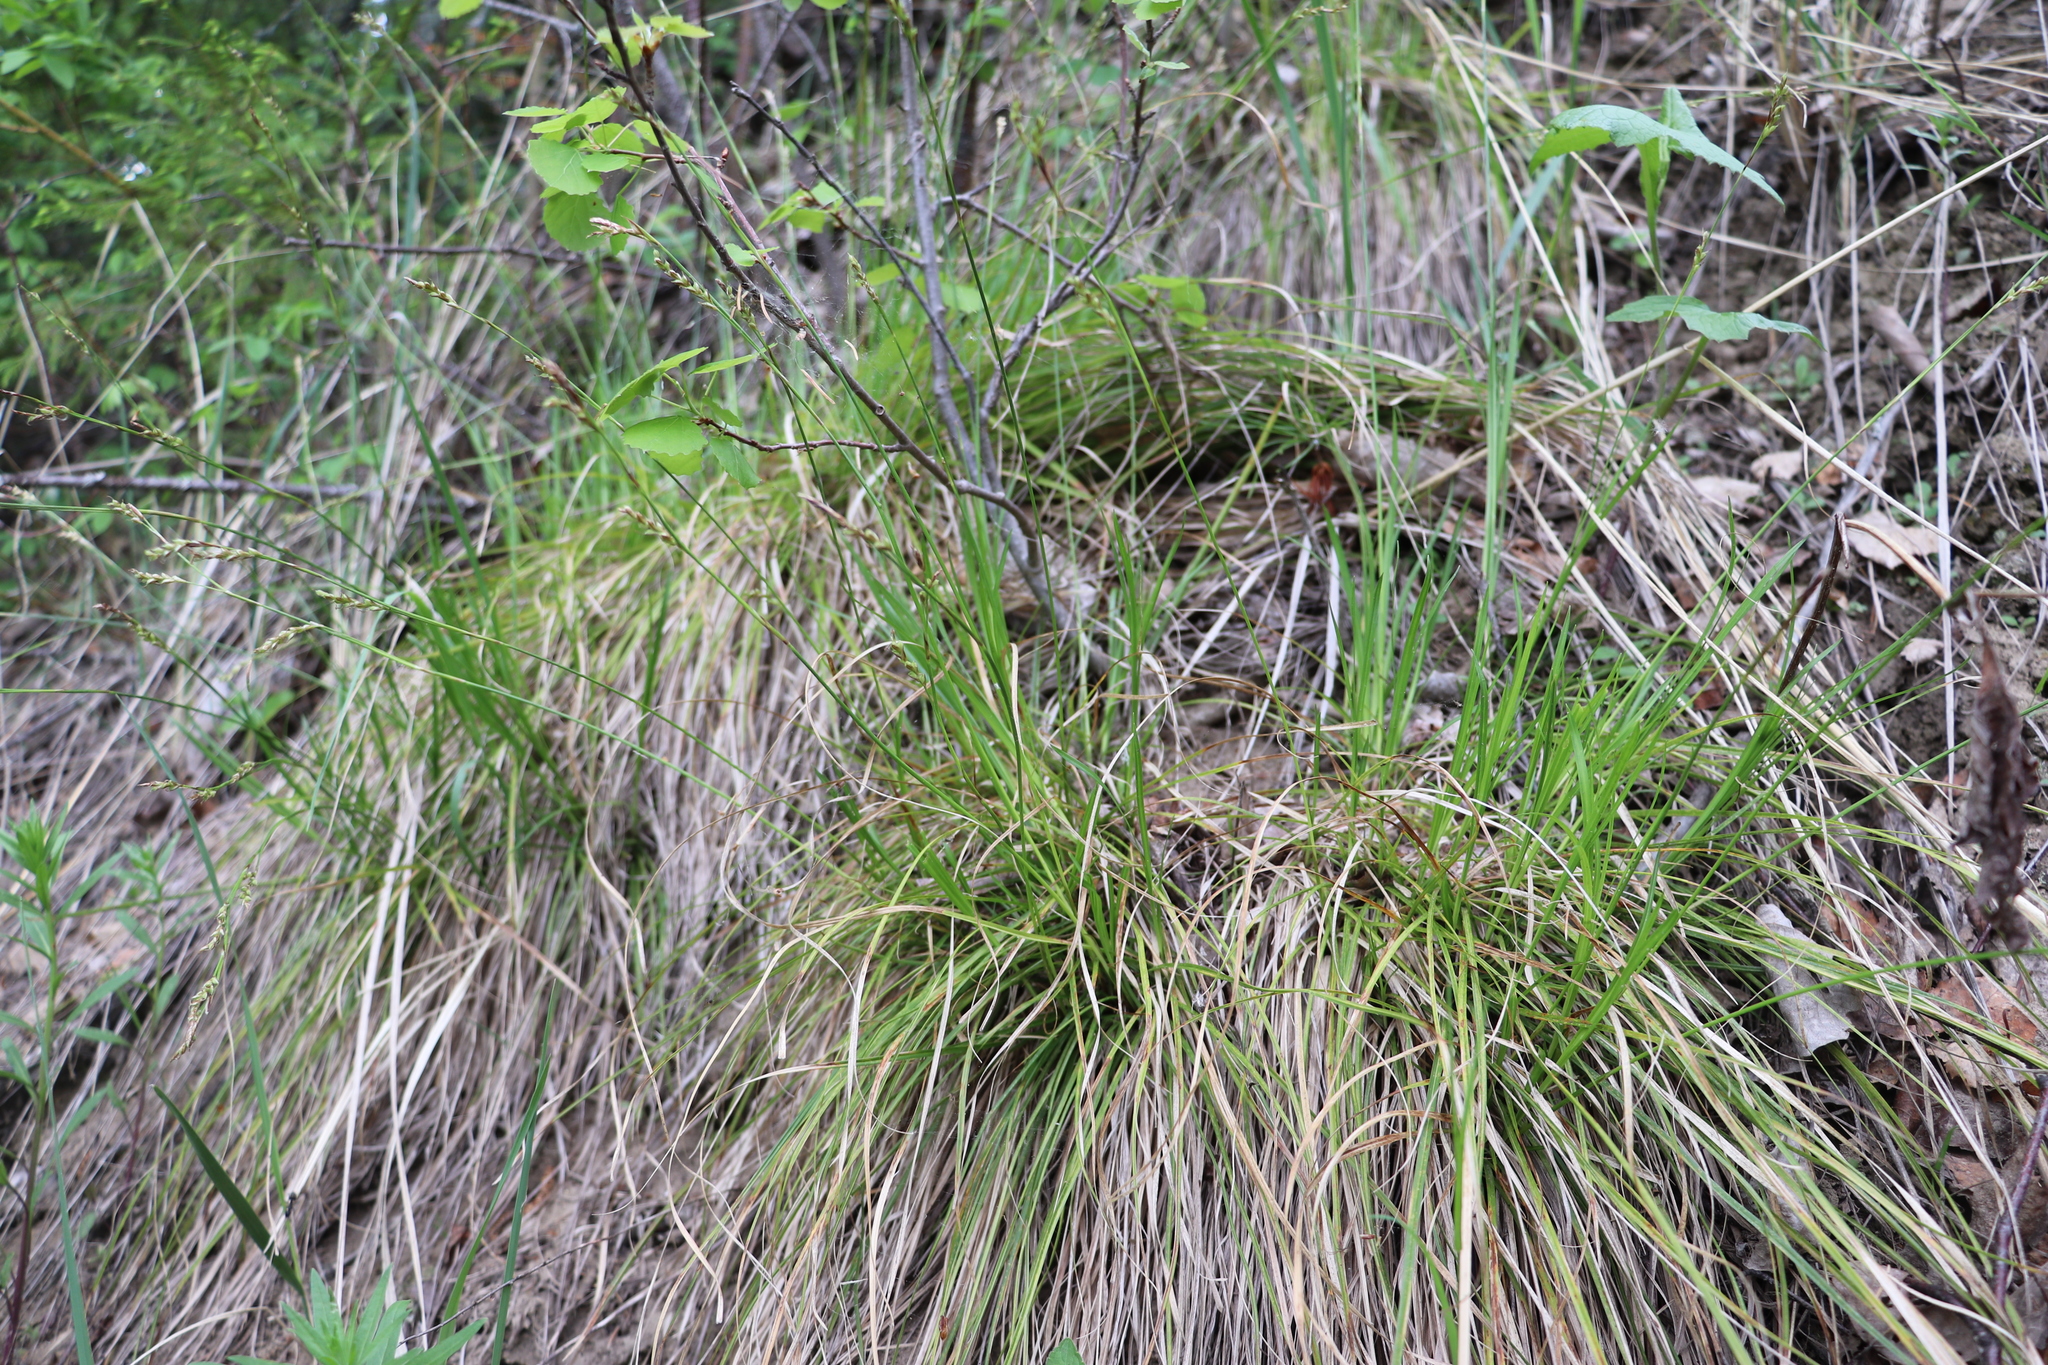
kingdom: Plantae
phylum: Tracheophyta
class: Liliopsida
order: Poales
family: Cyperaceae
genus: Carex
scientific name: Carex pediformis
